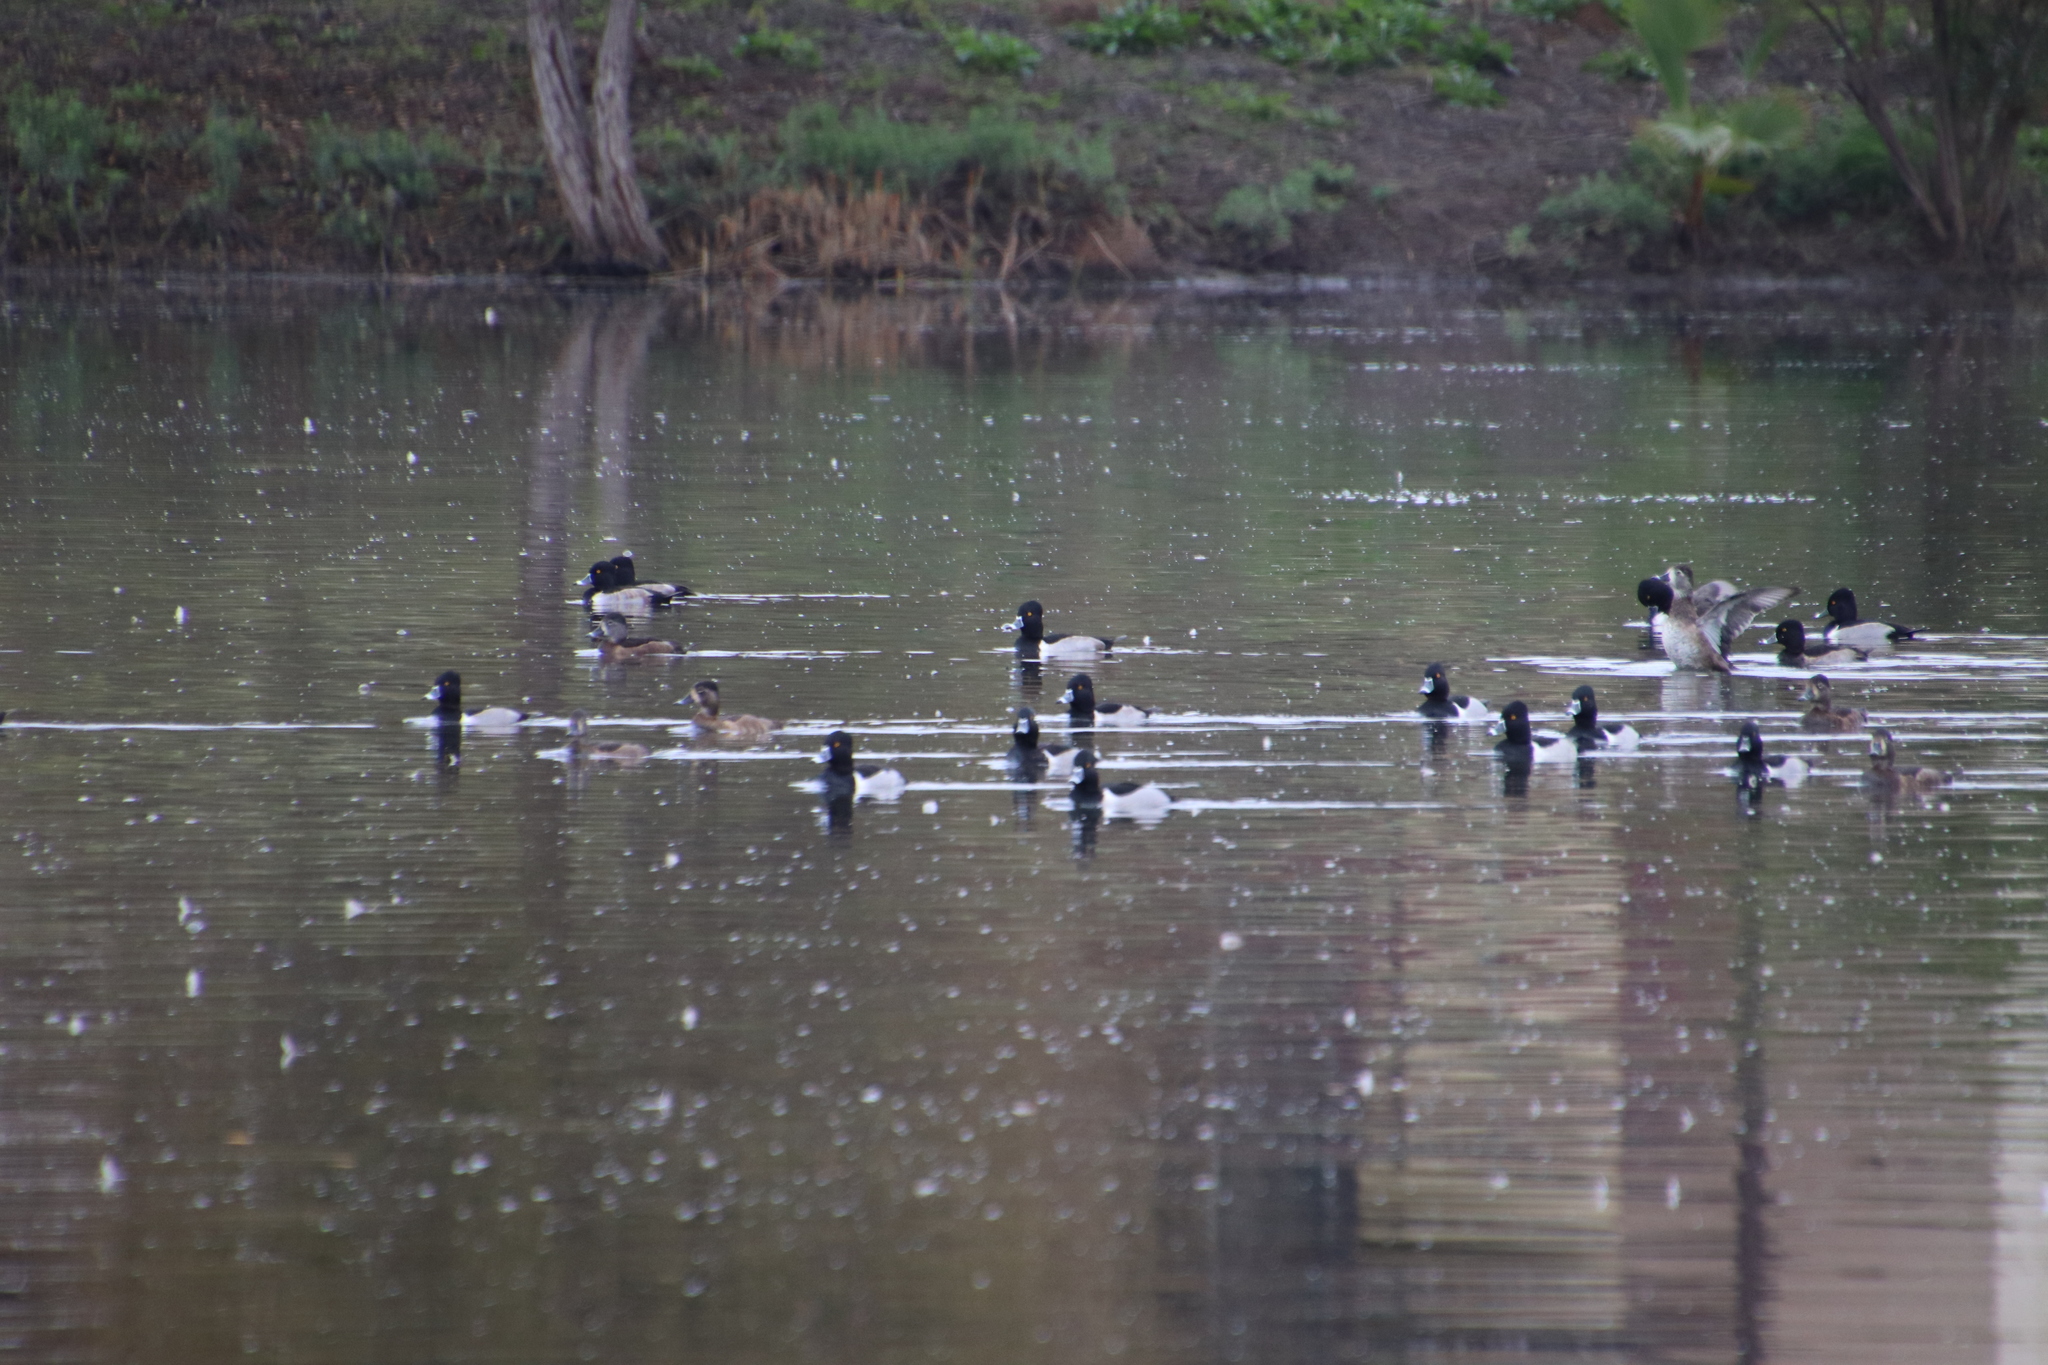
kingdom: Animalia
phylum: Chordata
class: Aves
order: Anseriformes
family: Anatidae
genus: Aythya
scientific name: Aythya collaris
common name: Ring-necked duck
